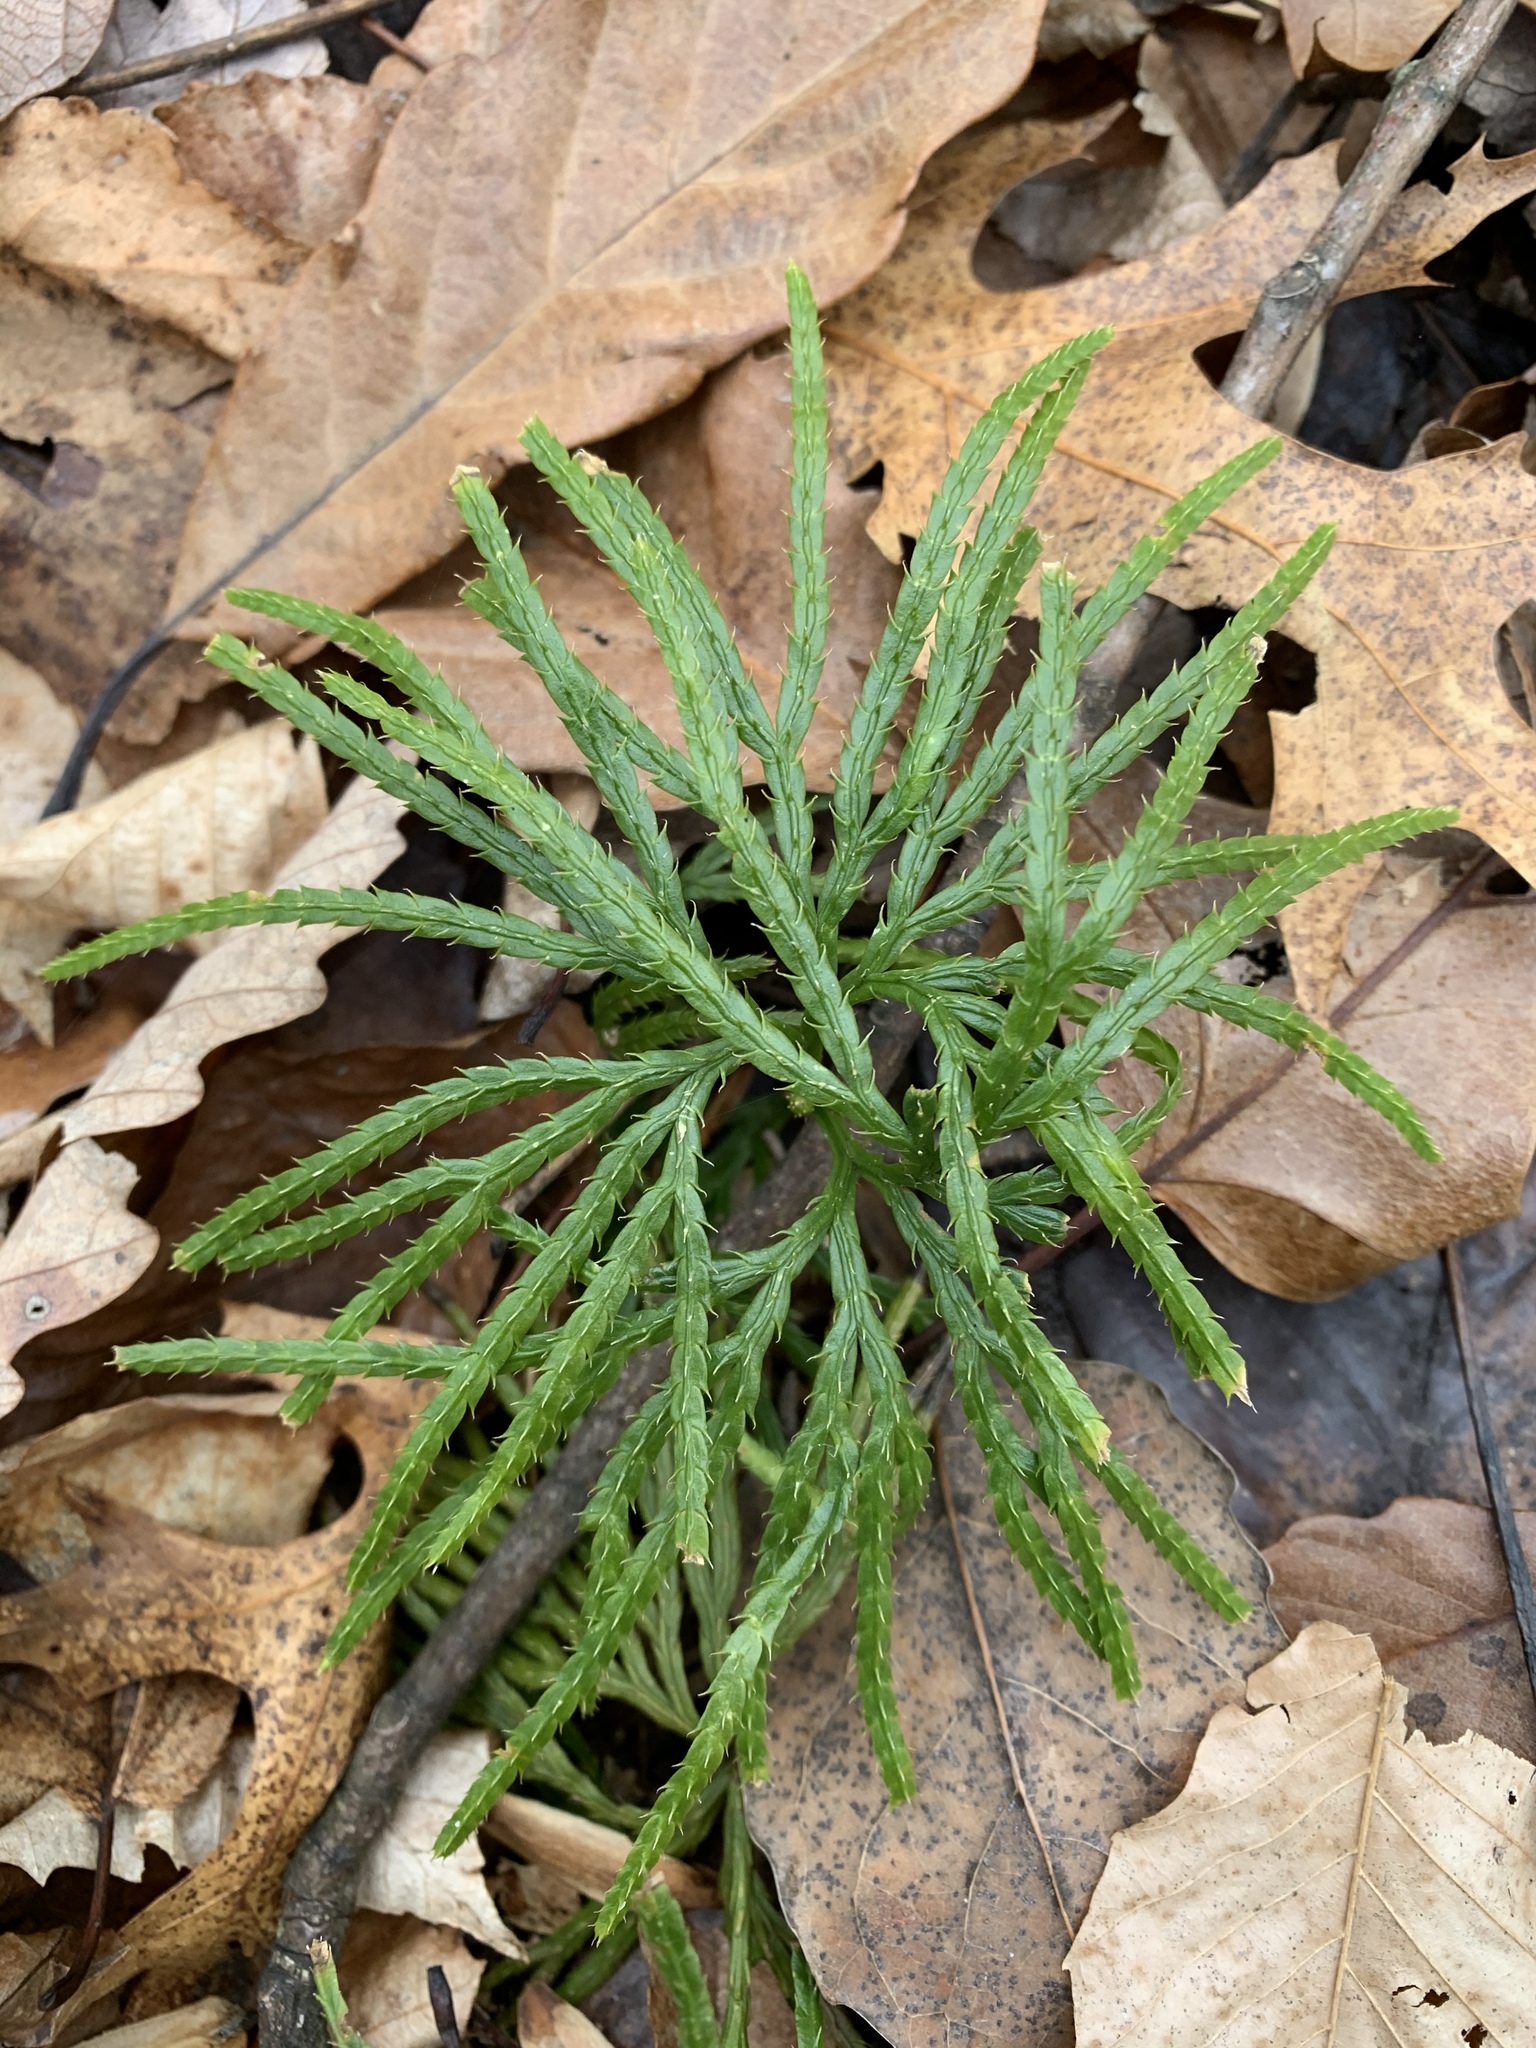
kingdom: Plantae
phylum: Tracheophyta
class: Lycopodiopsida
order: Lycopodiales
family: Lycopodiaceae
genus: Diphasiastrum
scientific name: Diphasiastrum digitatum
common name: Southern running-pine
